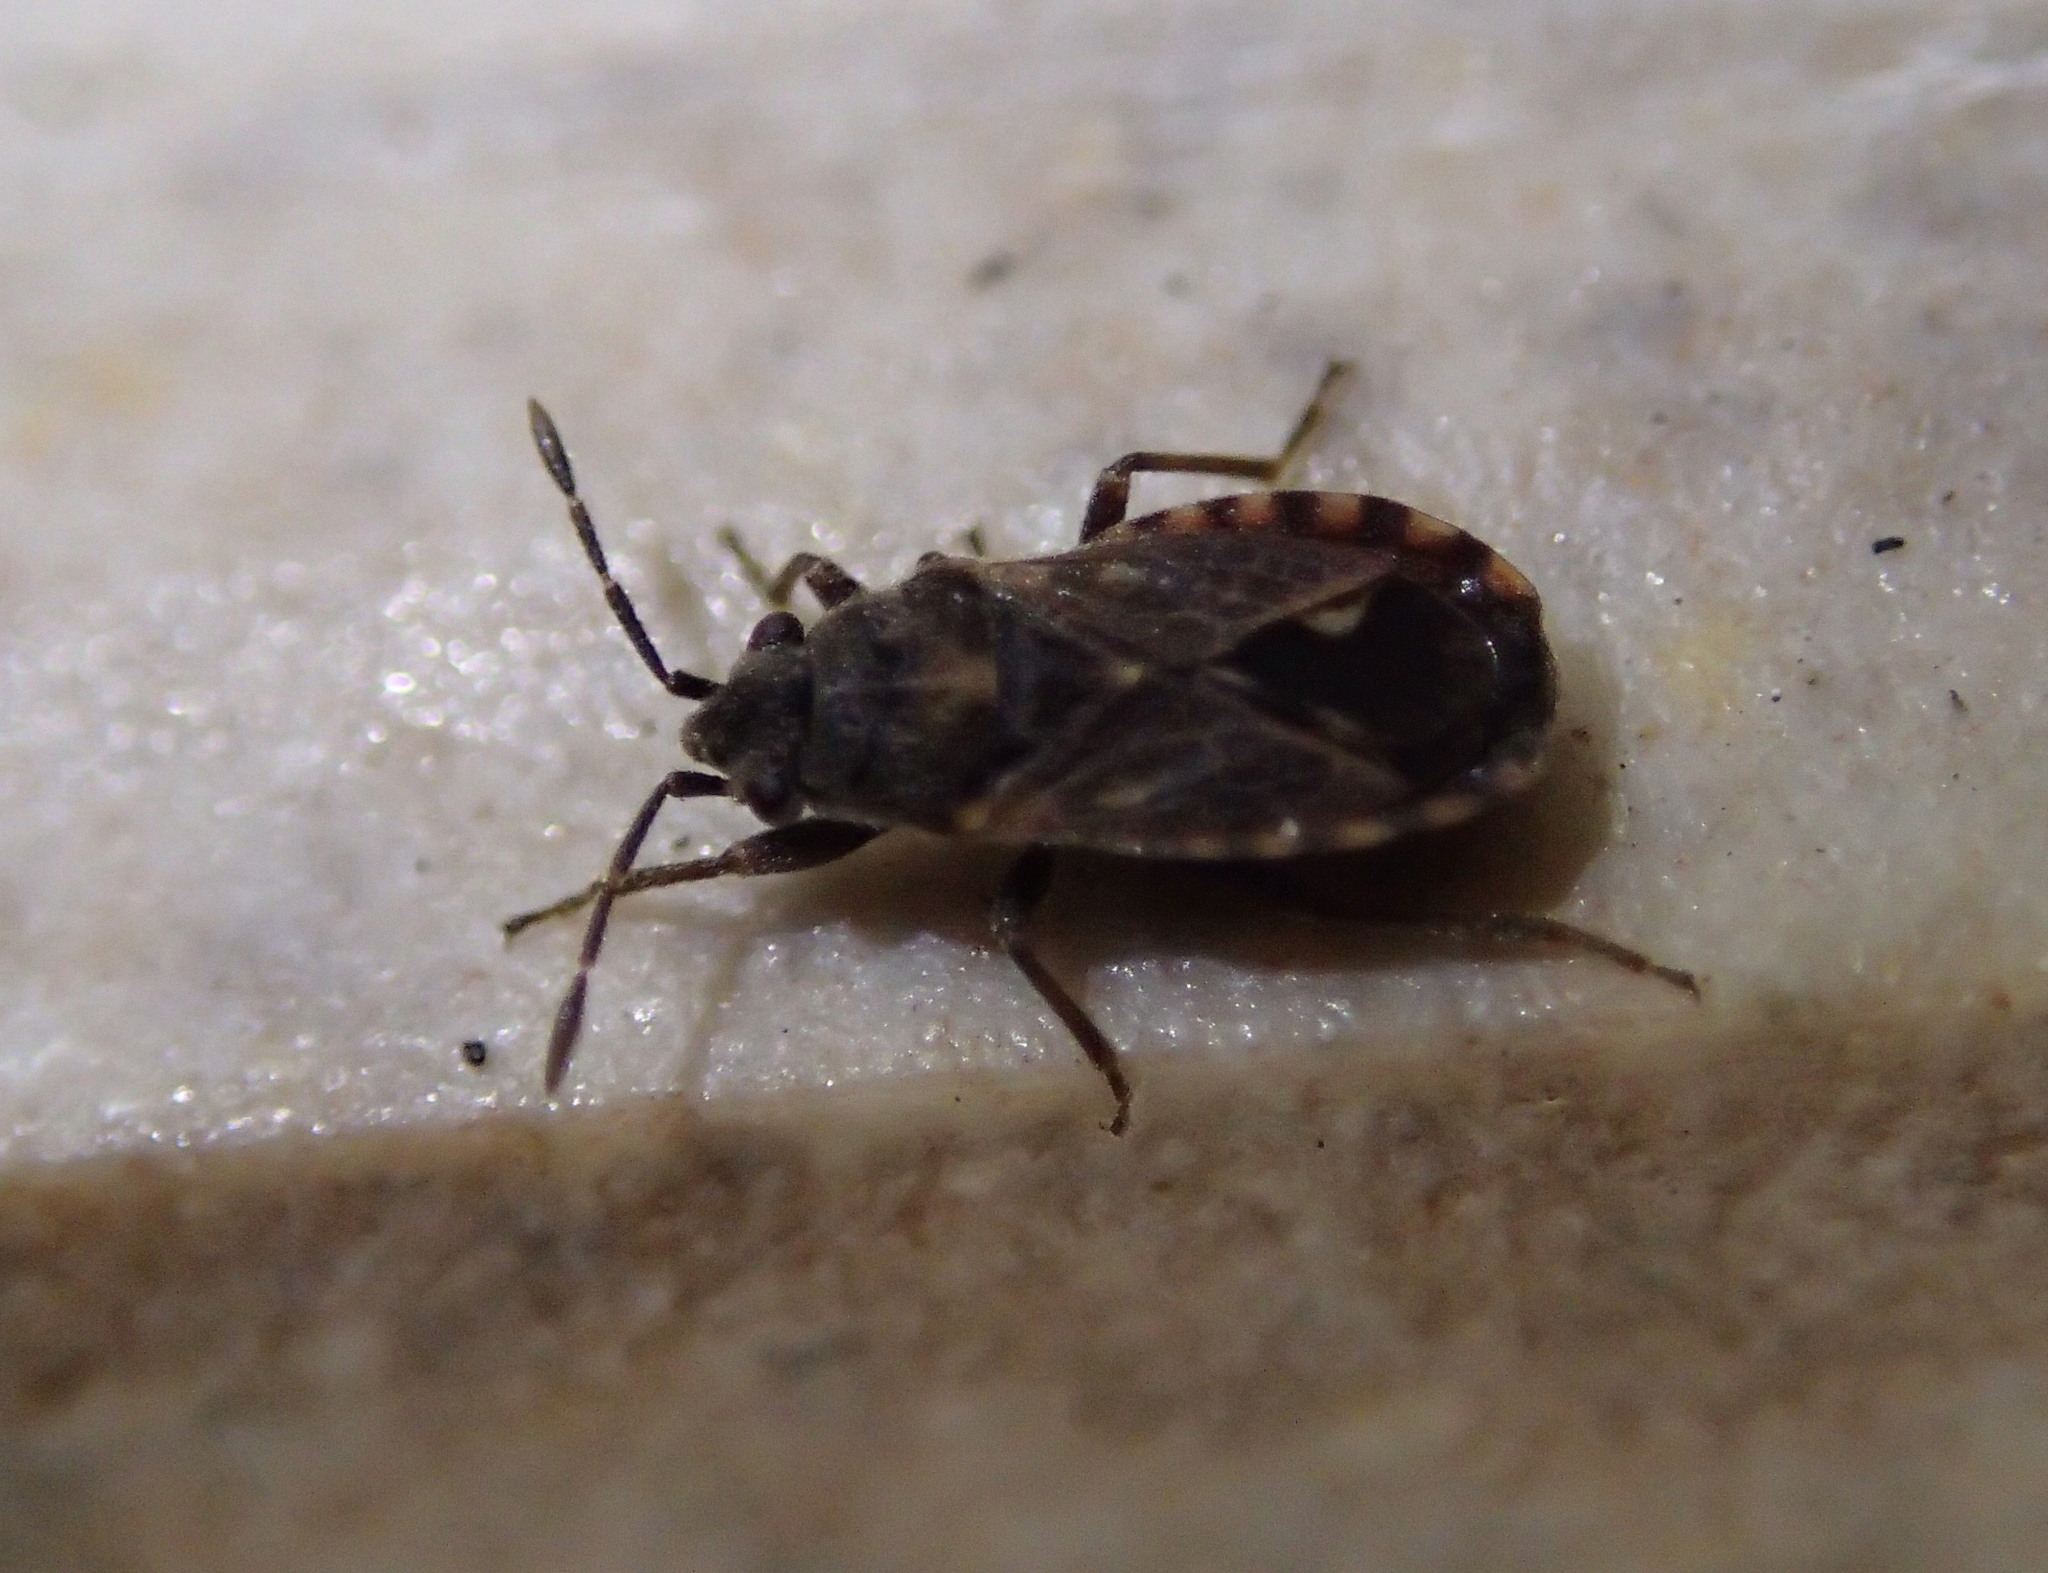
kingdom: Animalia
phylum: Arthropoda
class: Insecta
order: Hemiptera
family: Lygaeidae
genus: Lygaeosoma
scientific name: Lygaeosoma sardeum
